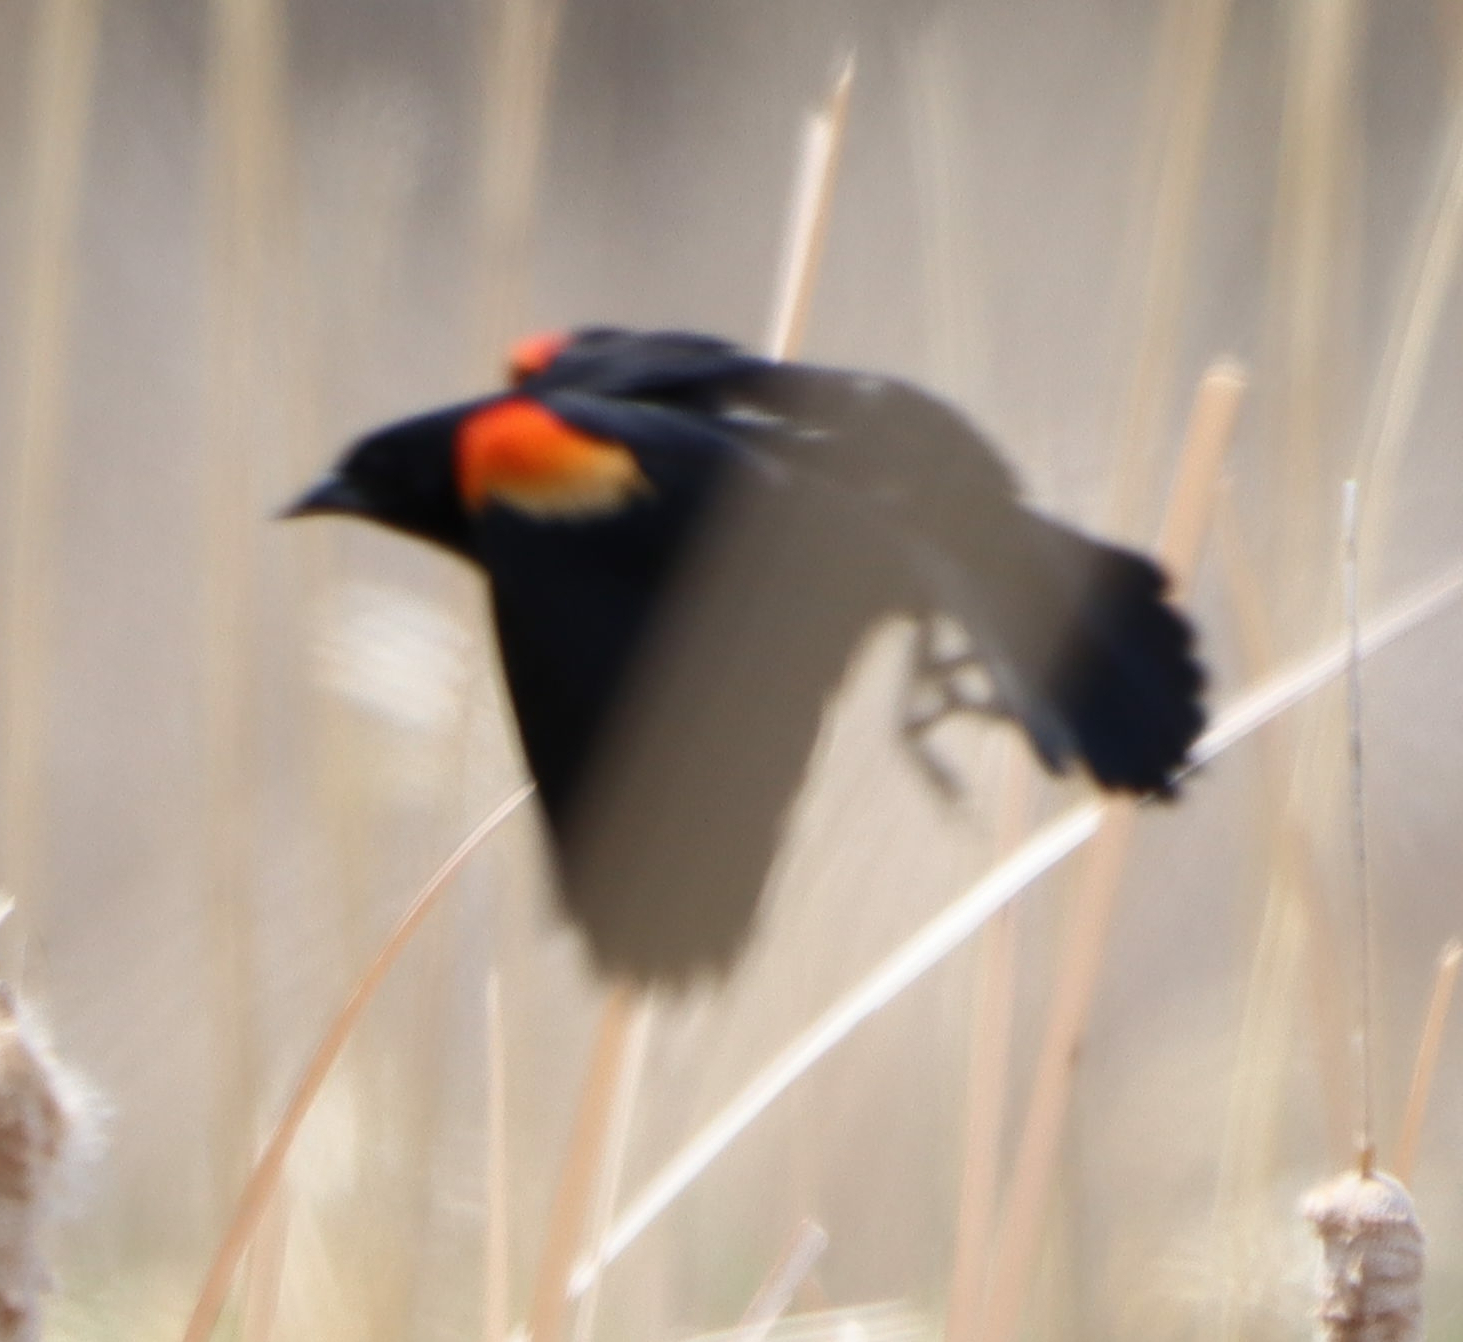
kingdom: Animalia
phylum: Chordata
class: Aves
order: Passeriformes
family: Icteridae
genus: Agelaius
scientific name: Agelaius phoeniceus
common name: Red-winged blackbird
